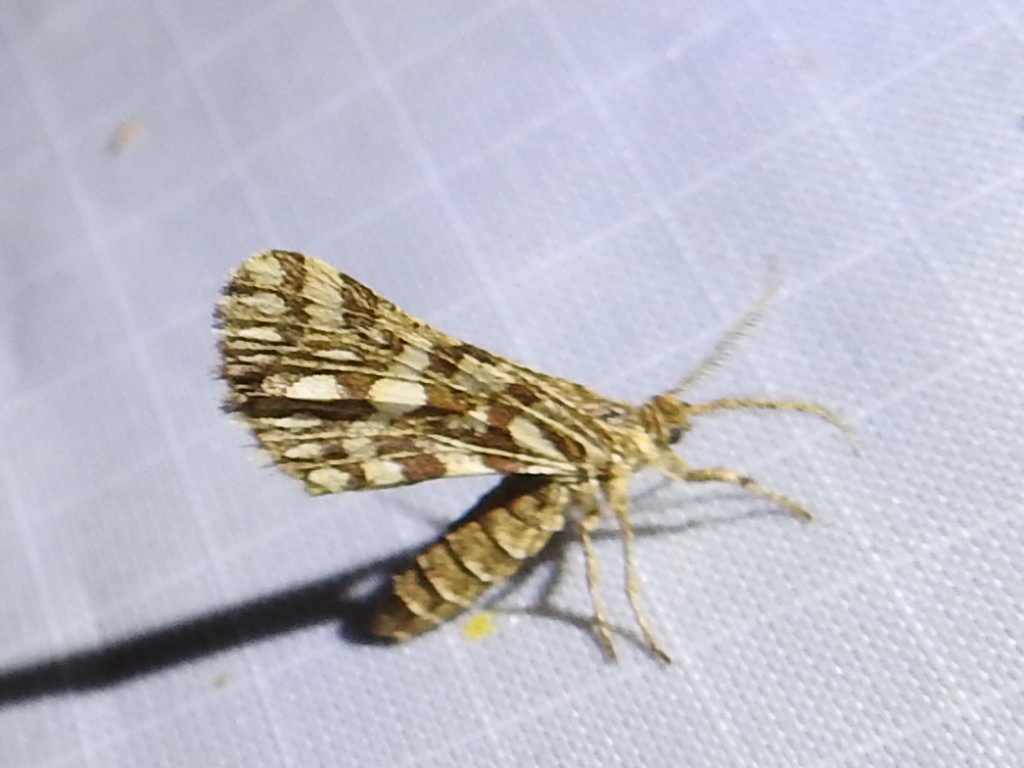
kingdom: Animalia
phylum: Arthropoda
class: Insecta
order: Lepidoptera
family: Geometridae
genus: Narraga
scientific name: Narraga fimetaria
